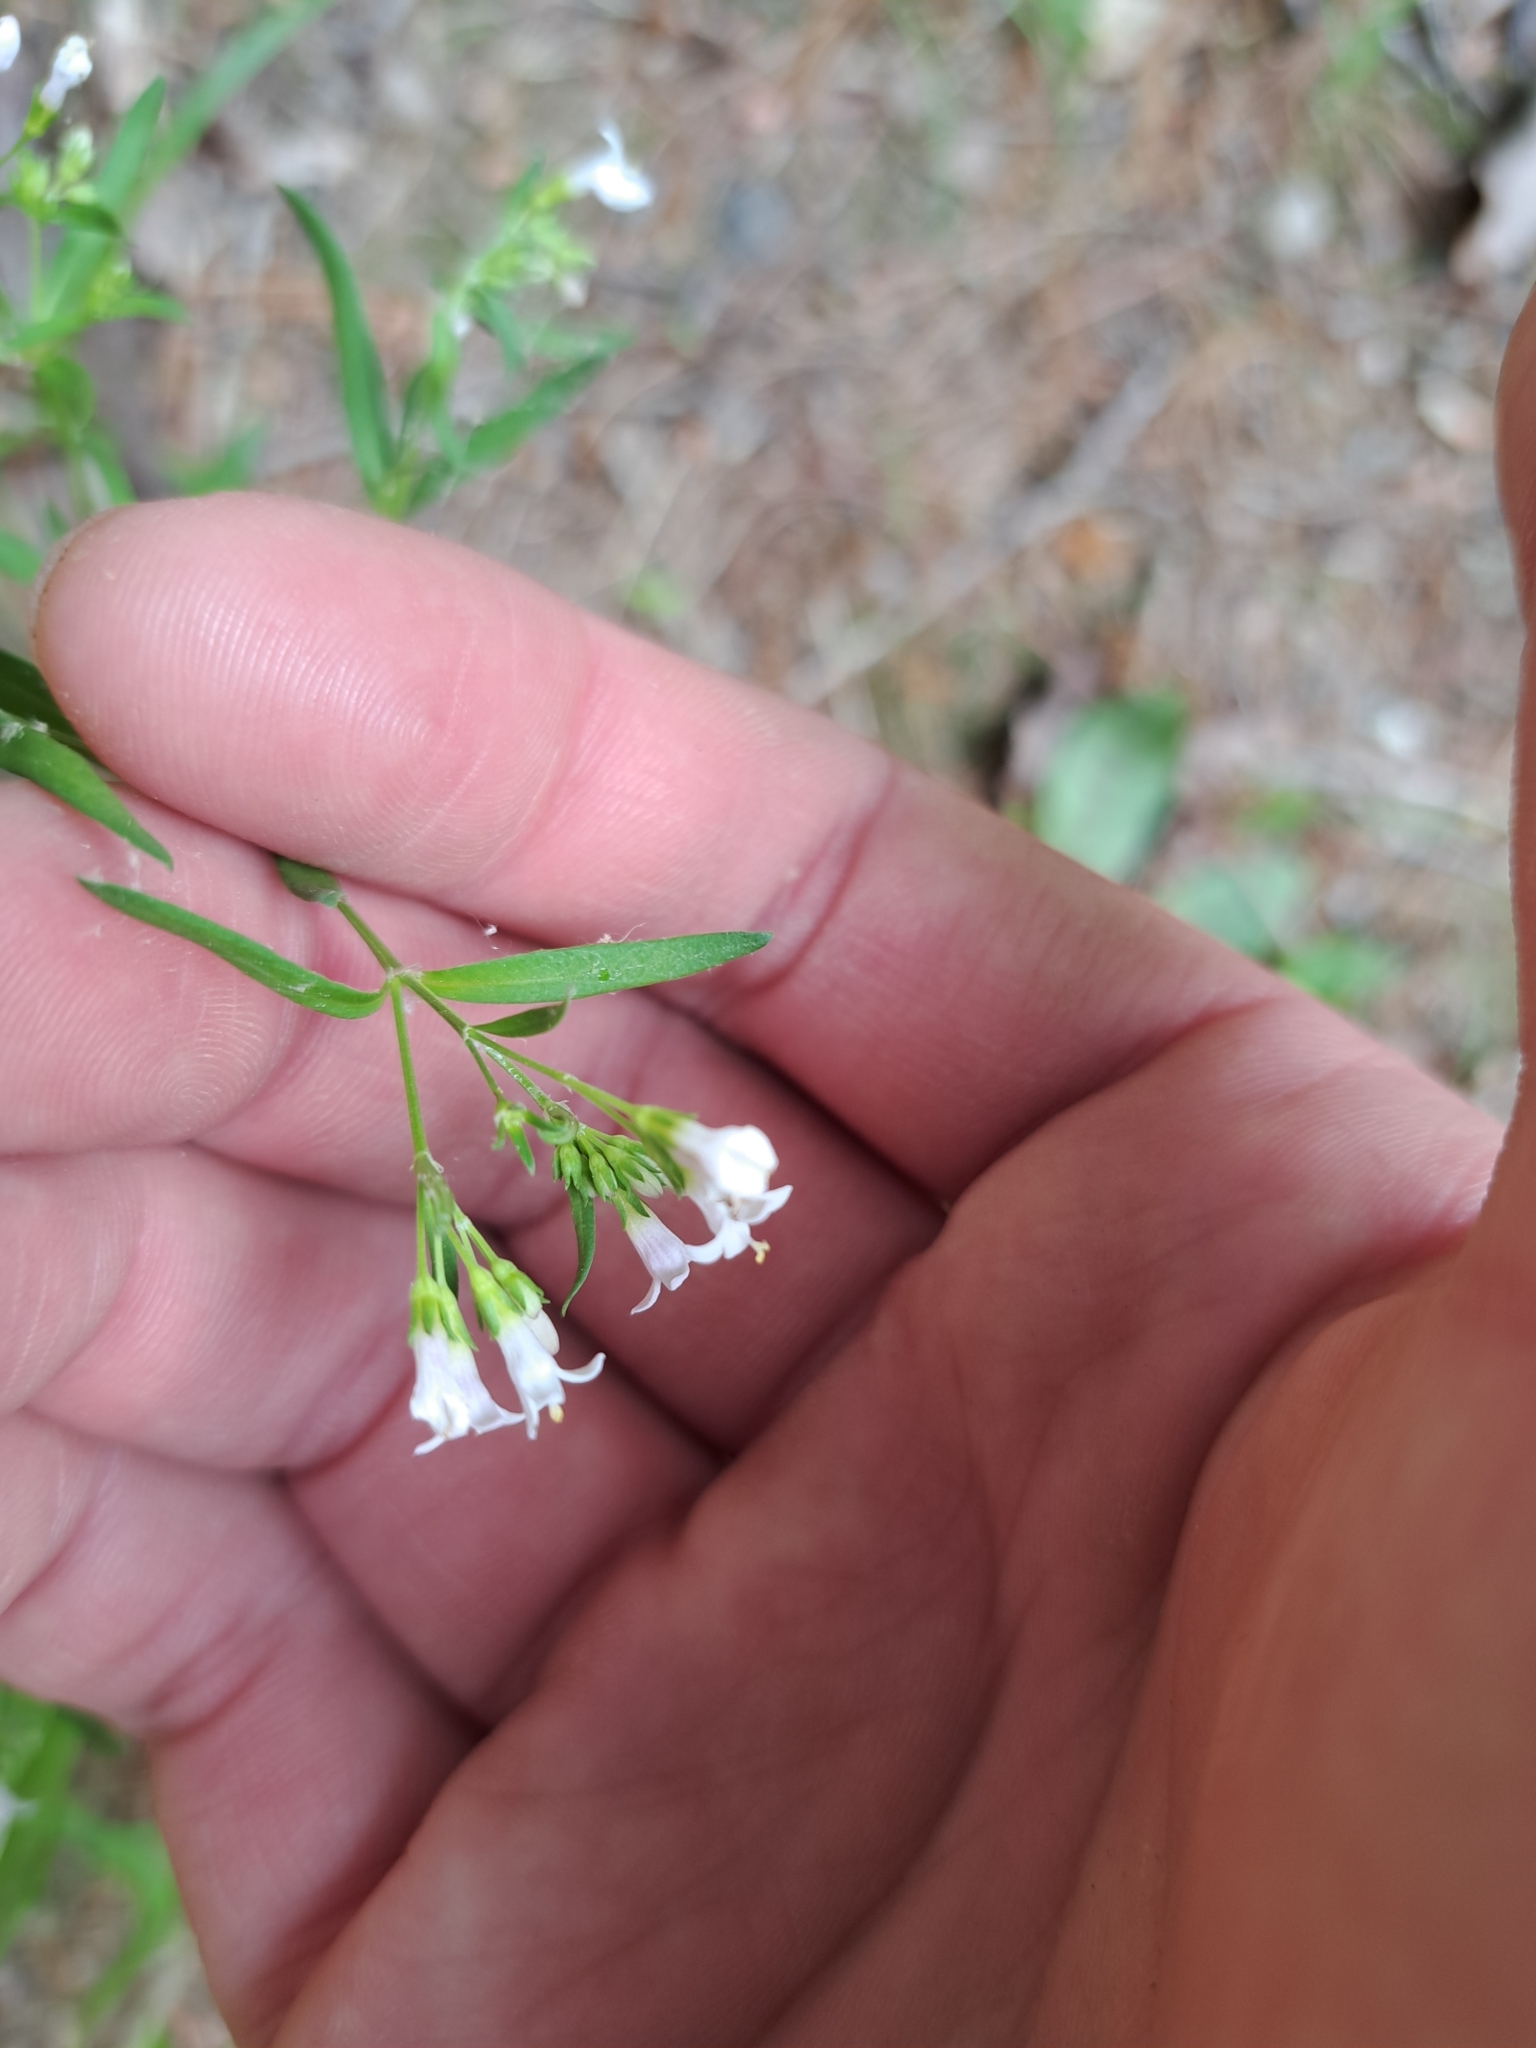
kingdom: Plantae
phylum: Tracheophyta
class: Magnoliopsida
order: Gentianales
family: Rubiaceae
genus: Houstonia
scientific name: Houstonia longifolia
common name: Long-leaved bluets
